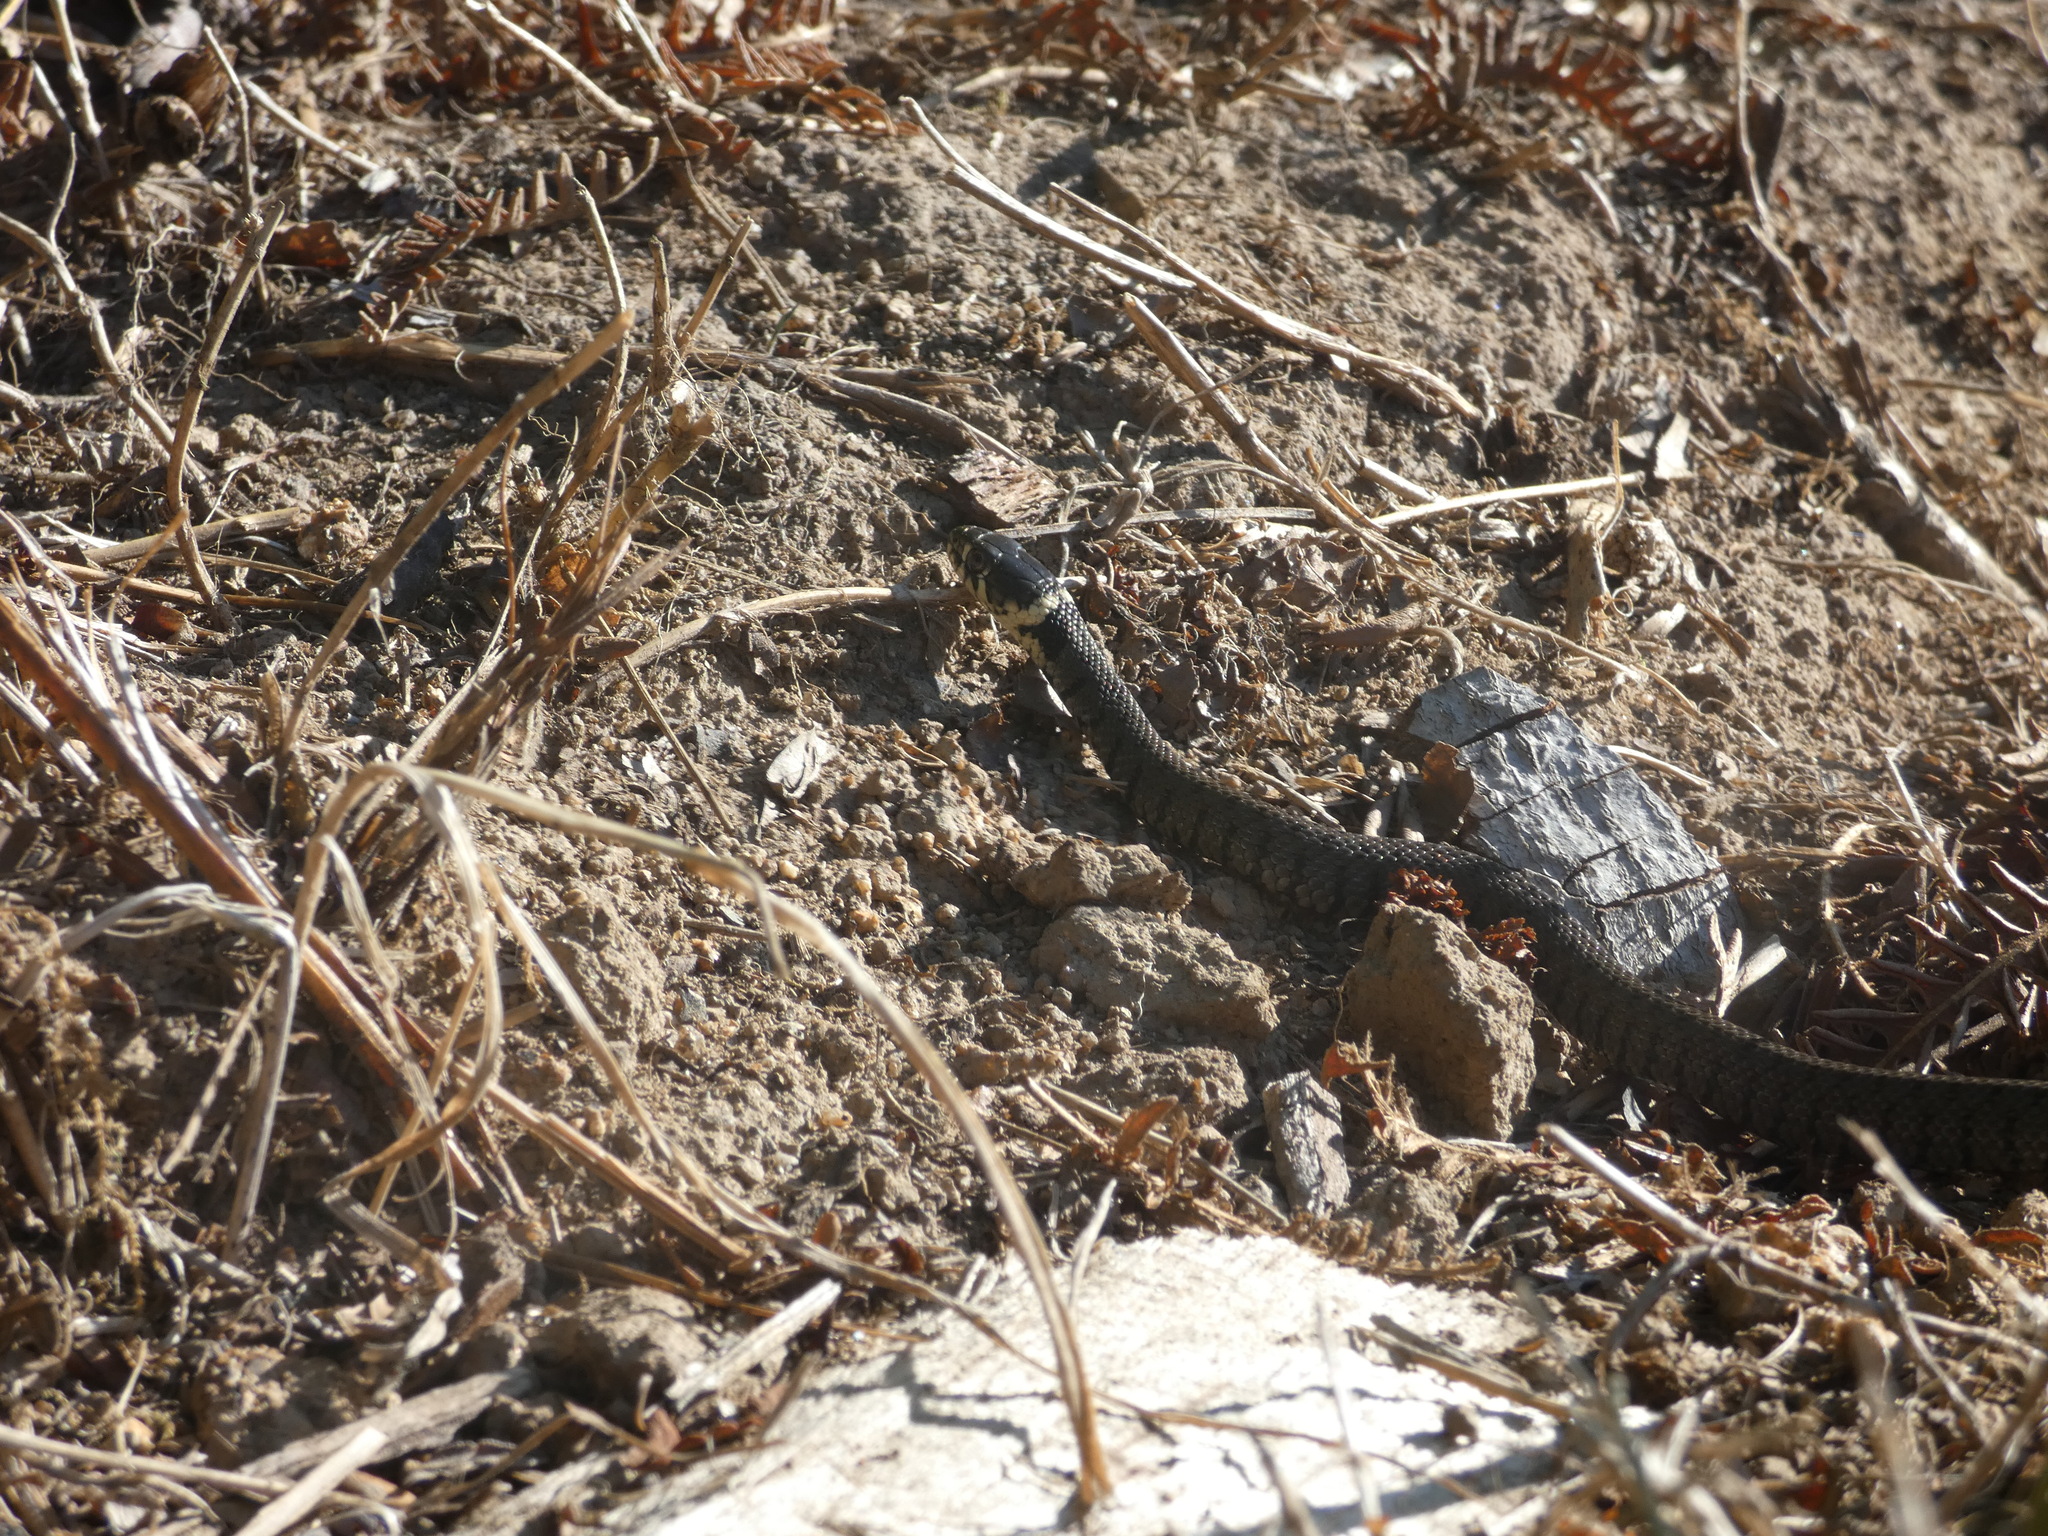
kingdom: Animalia
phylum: Chordata
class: Squamata
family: Colubridae
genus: Natrix
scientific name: Natrix helvetica
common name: Banded grass snake
